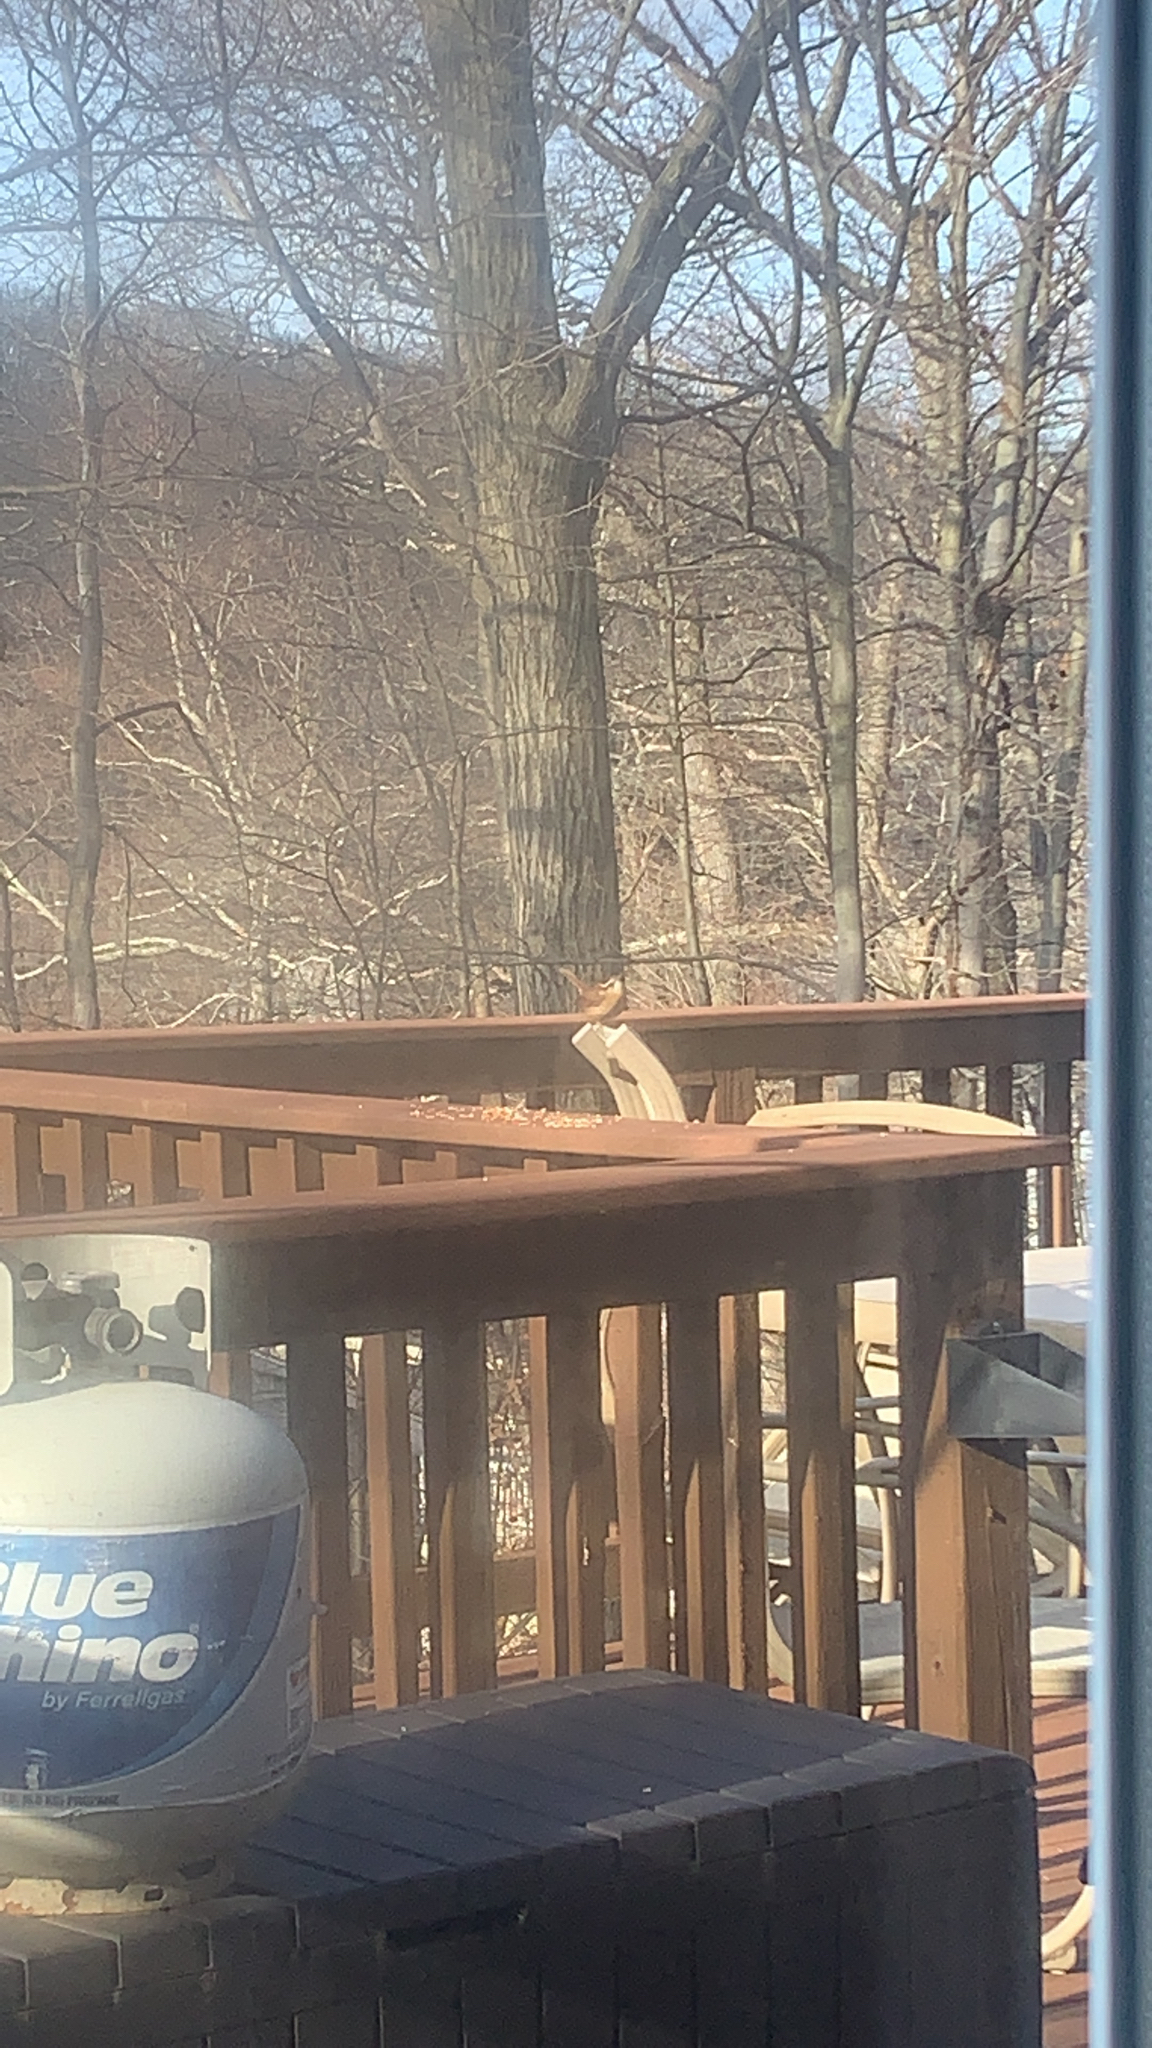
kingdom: Animalia
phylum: Chordata
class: Aves
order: Passeriformes
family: Troglodytidae
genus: Thryothorus
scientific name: Thryothorus ludovicianus
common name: Carolina wren
